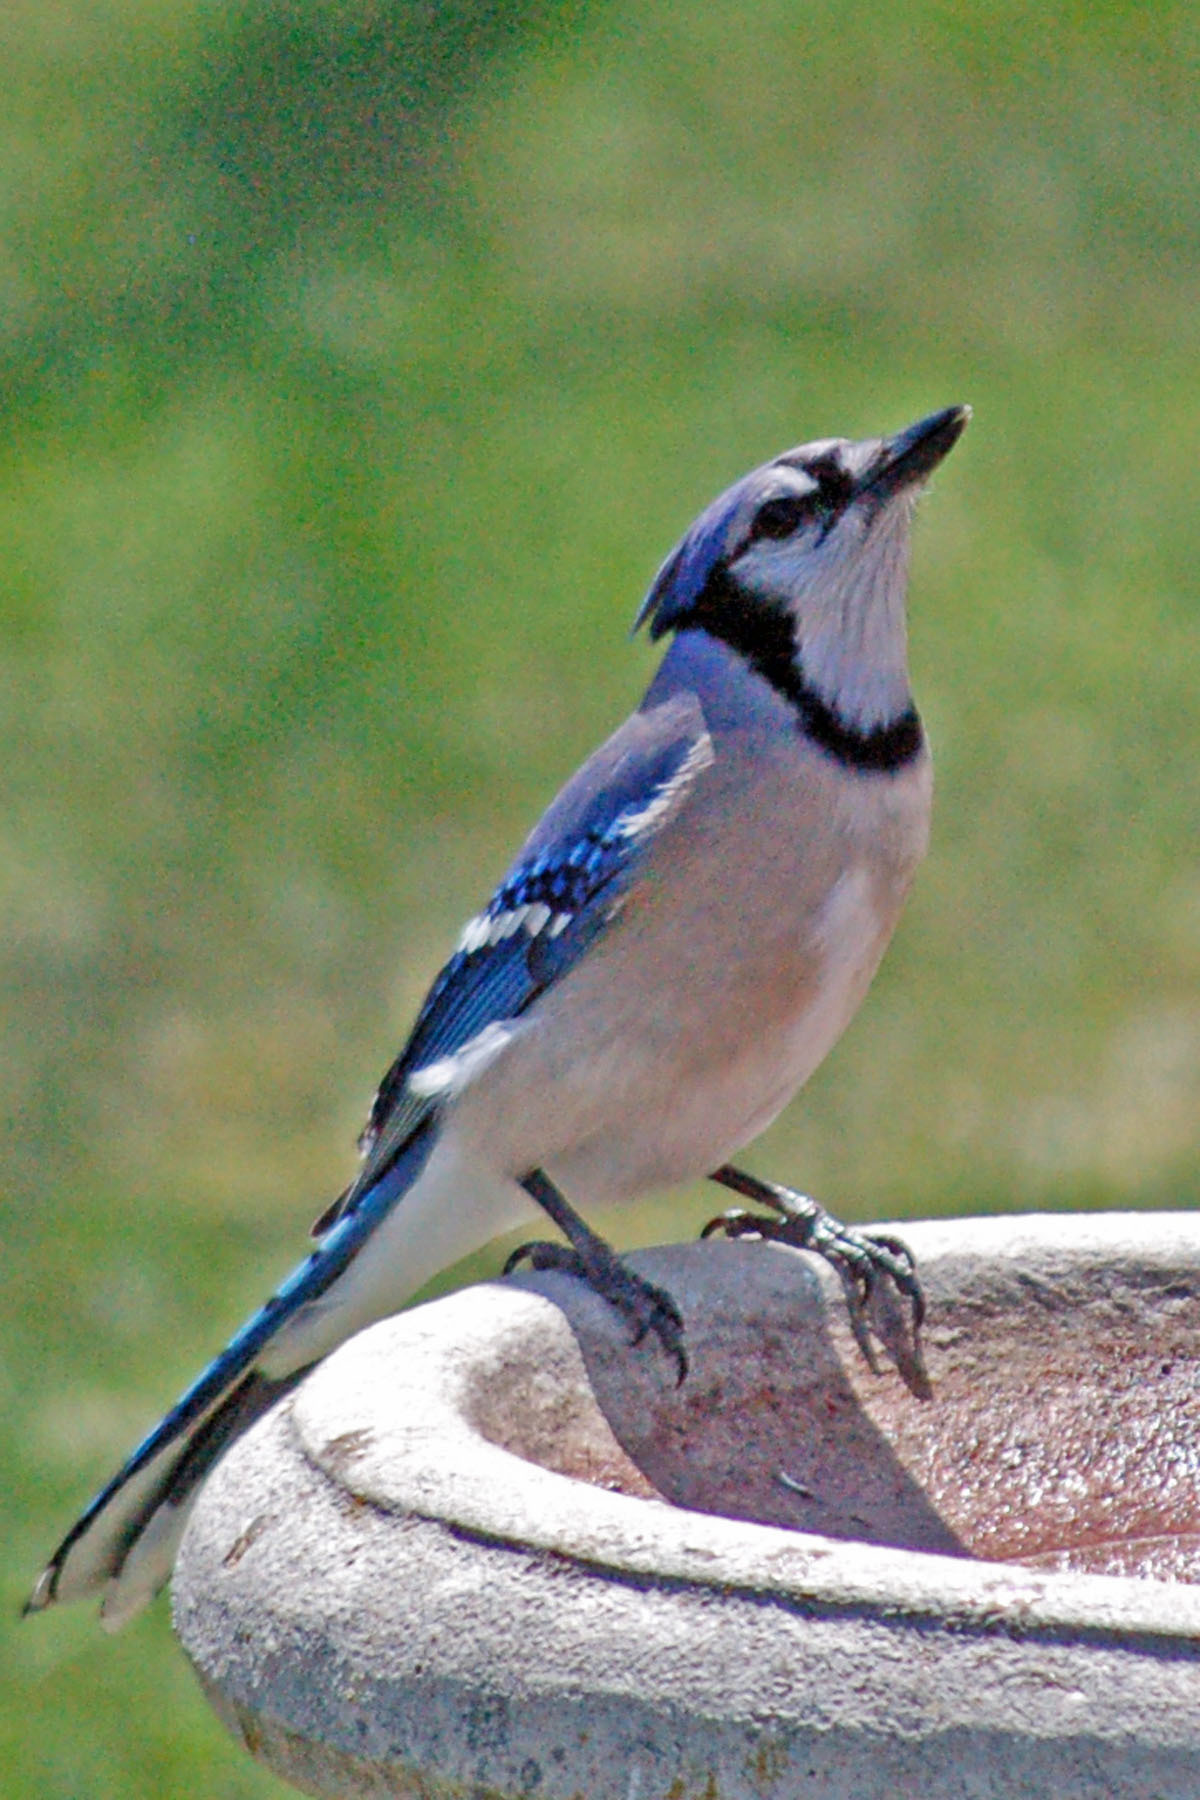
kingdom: Animalia
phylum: Chordata
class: Aves
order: Passeriformes
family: Corvidae
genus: Cyanocitta
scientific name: Cyanocitta cristata
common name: Blue jay
